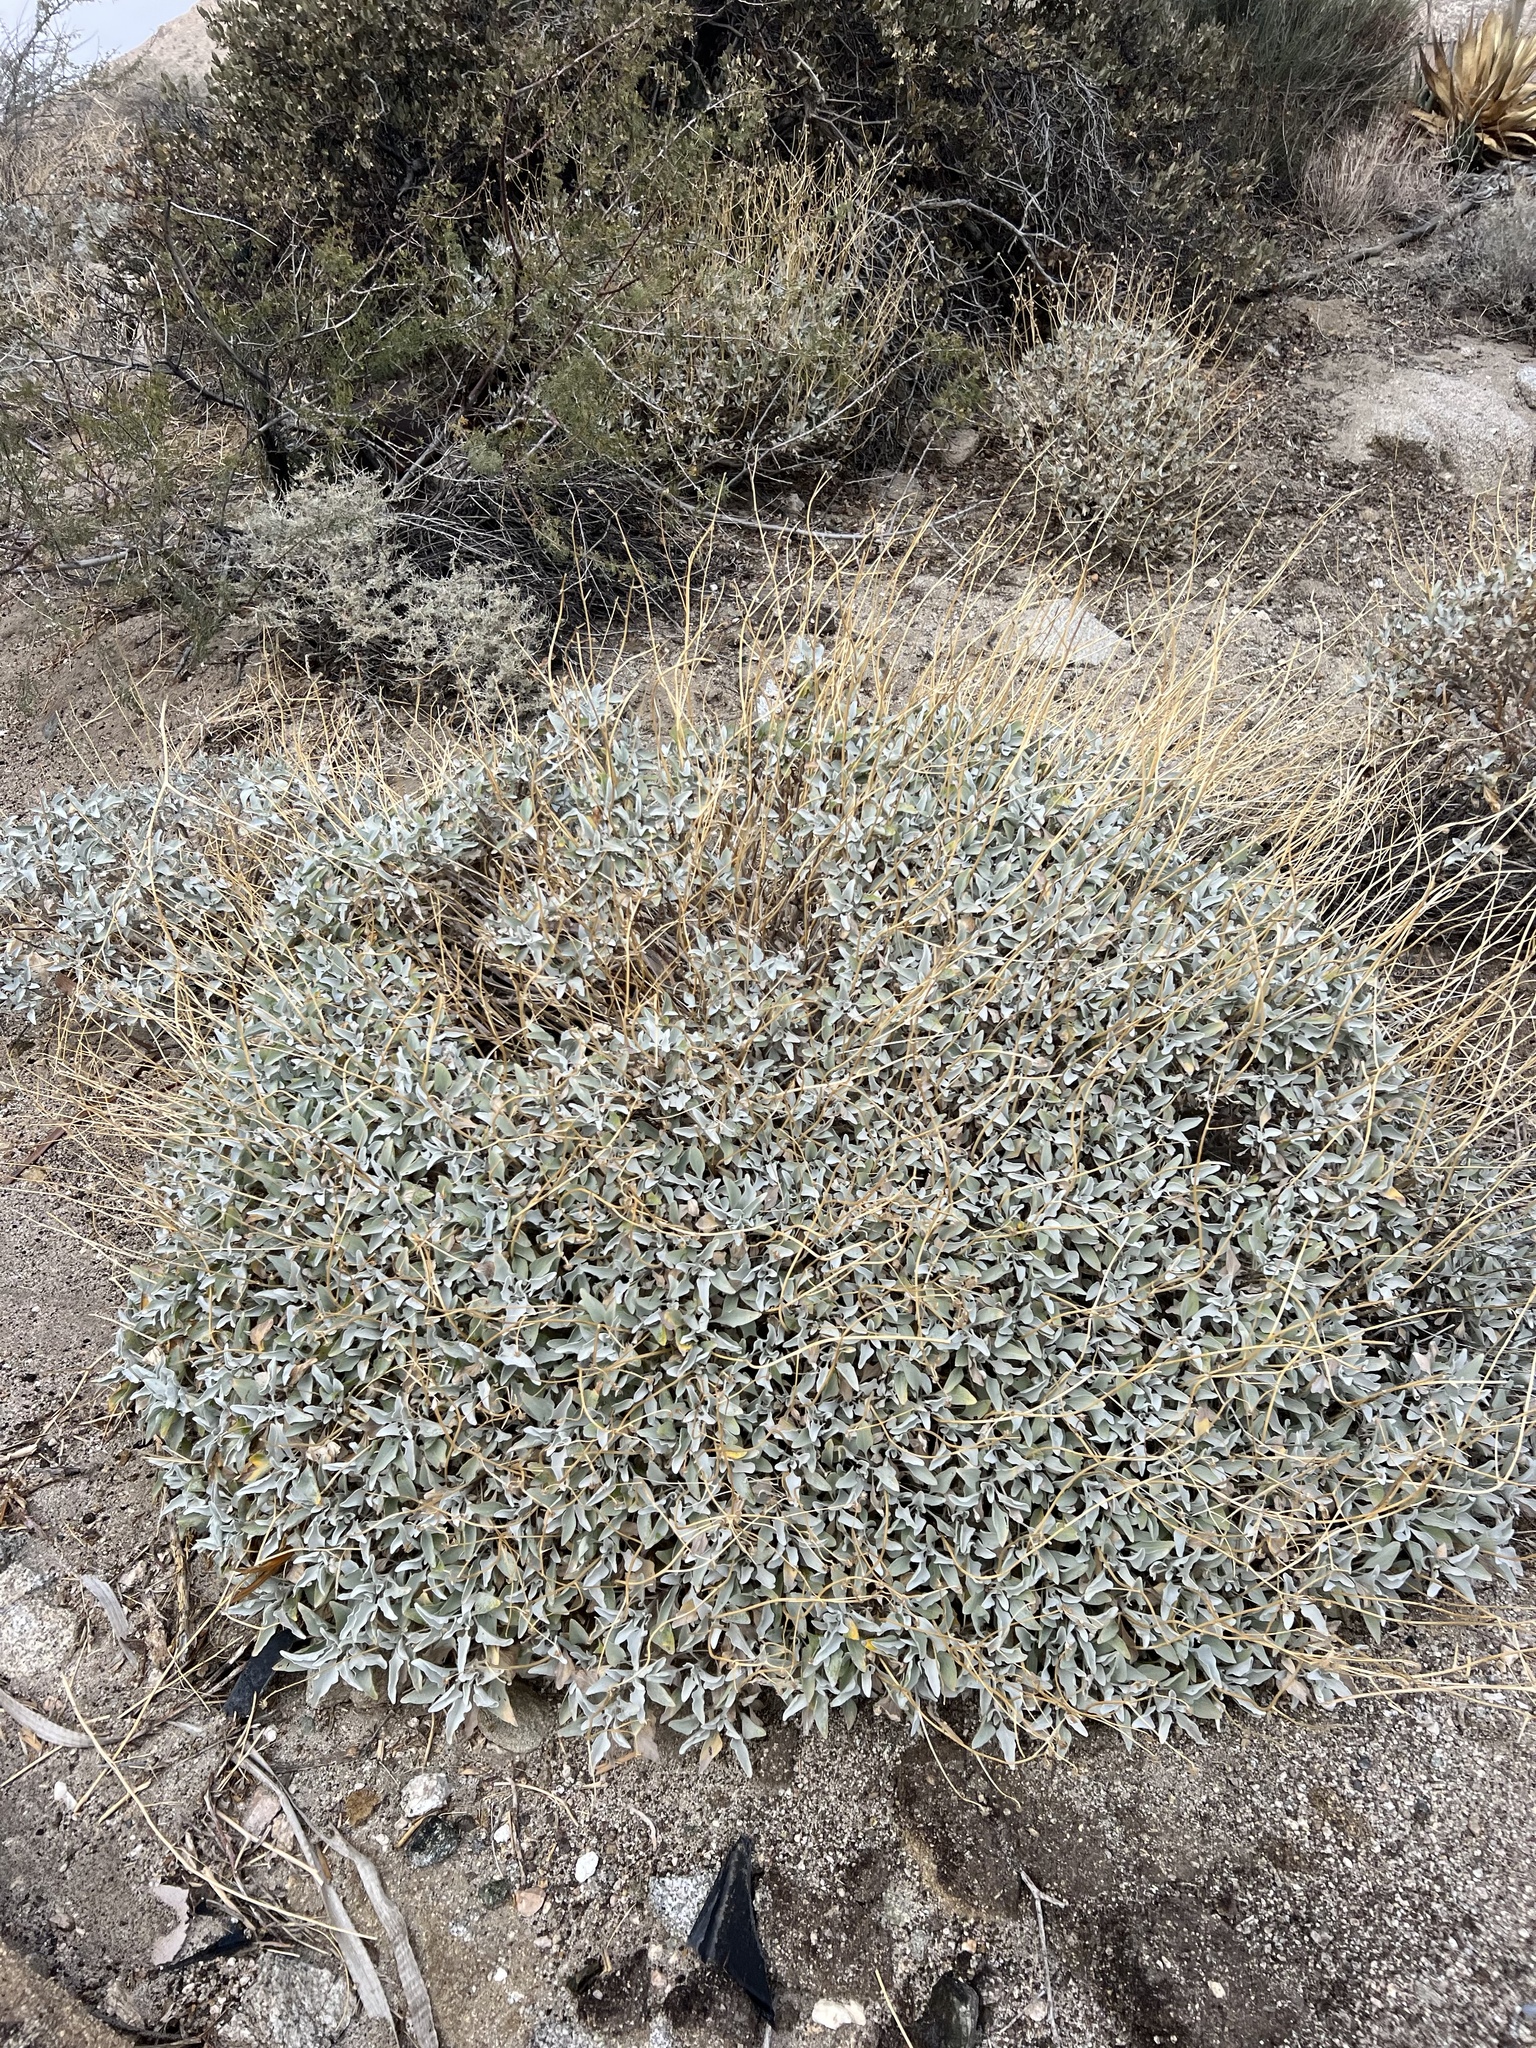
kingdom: Plantae
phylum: Tracheophyta
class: Magnoliopsida
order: Asterales
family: Asteraceae
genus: Encelia
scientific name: Encelia farinosa
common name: Brittlebush
